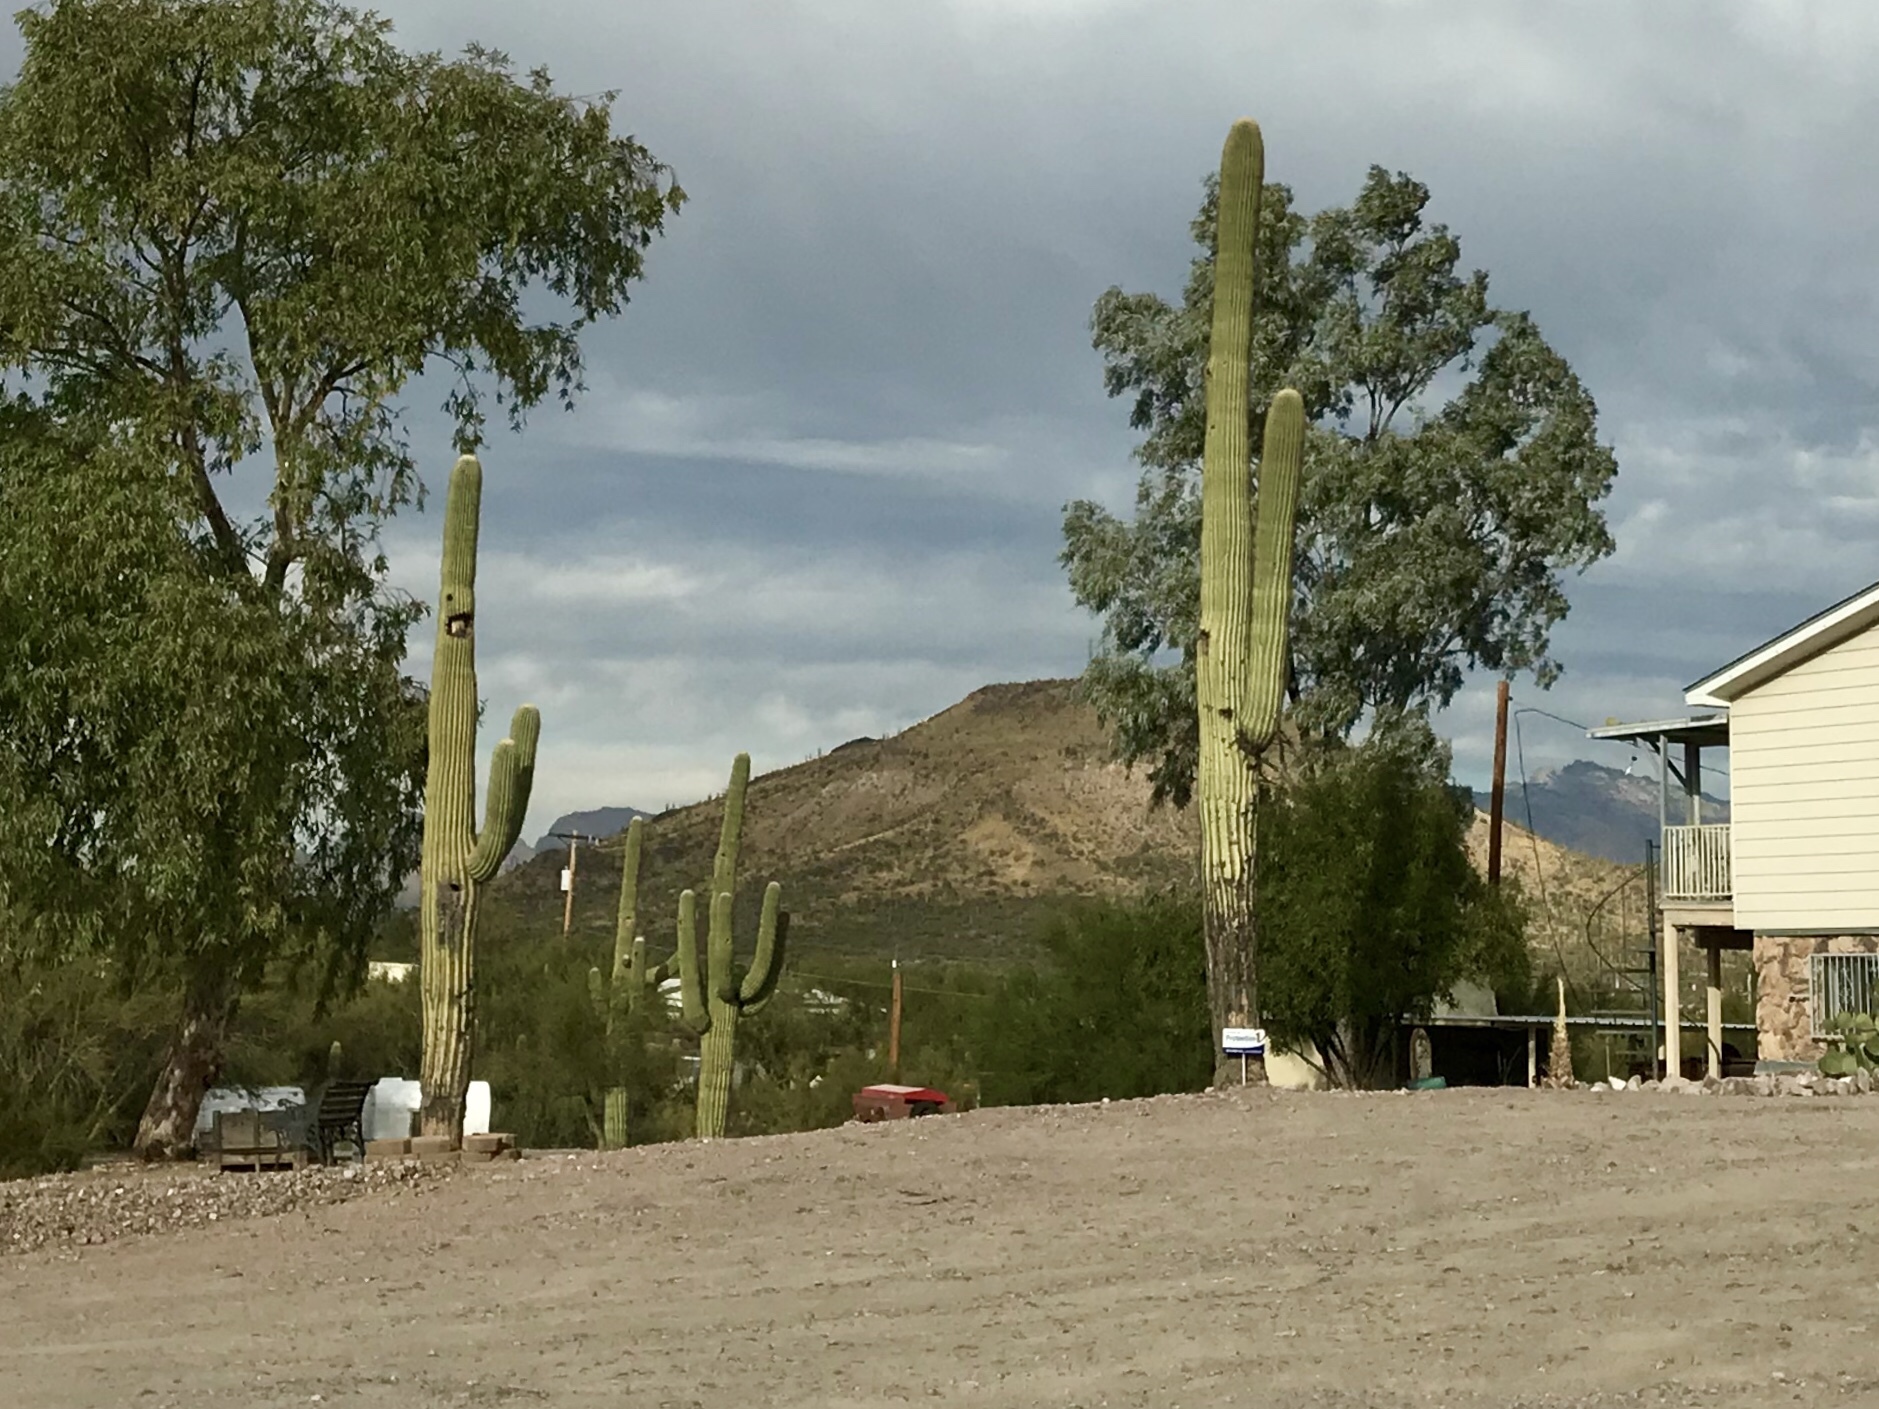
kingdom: Plantae
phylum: Tracheophyta
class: Magnoliopsida
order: Caryophyllales
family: Cactaceae
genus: Carnegiea
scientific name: Carnegiea gigantea
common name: Saguaro
